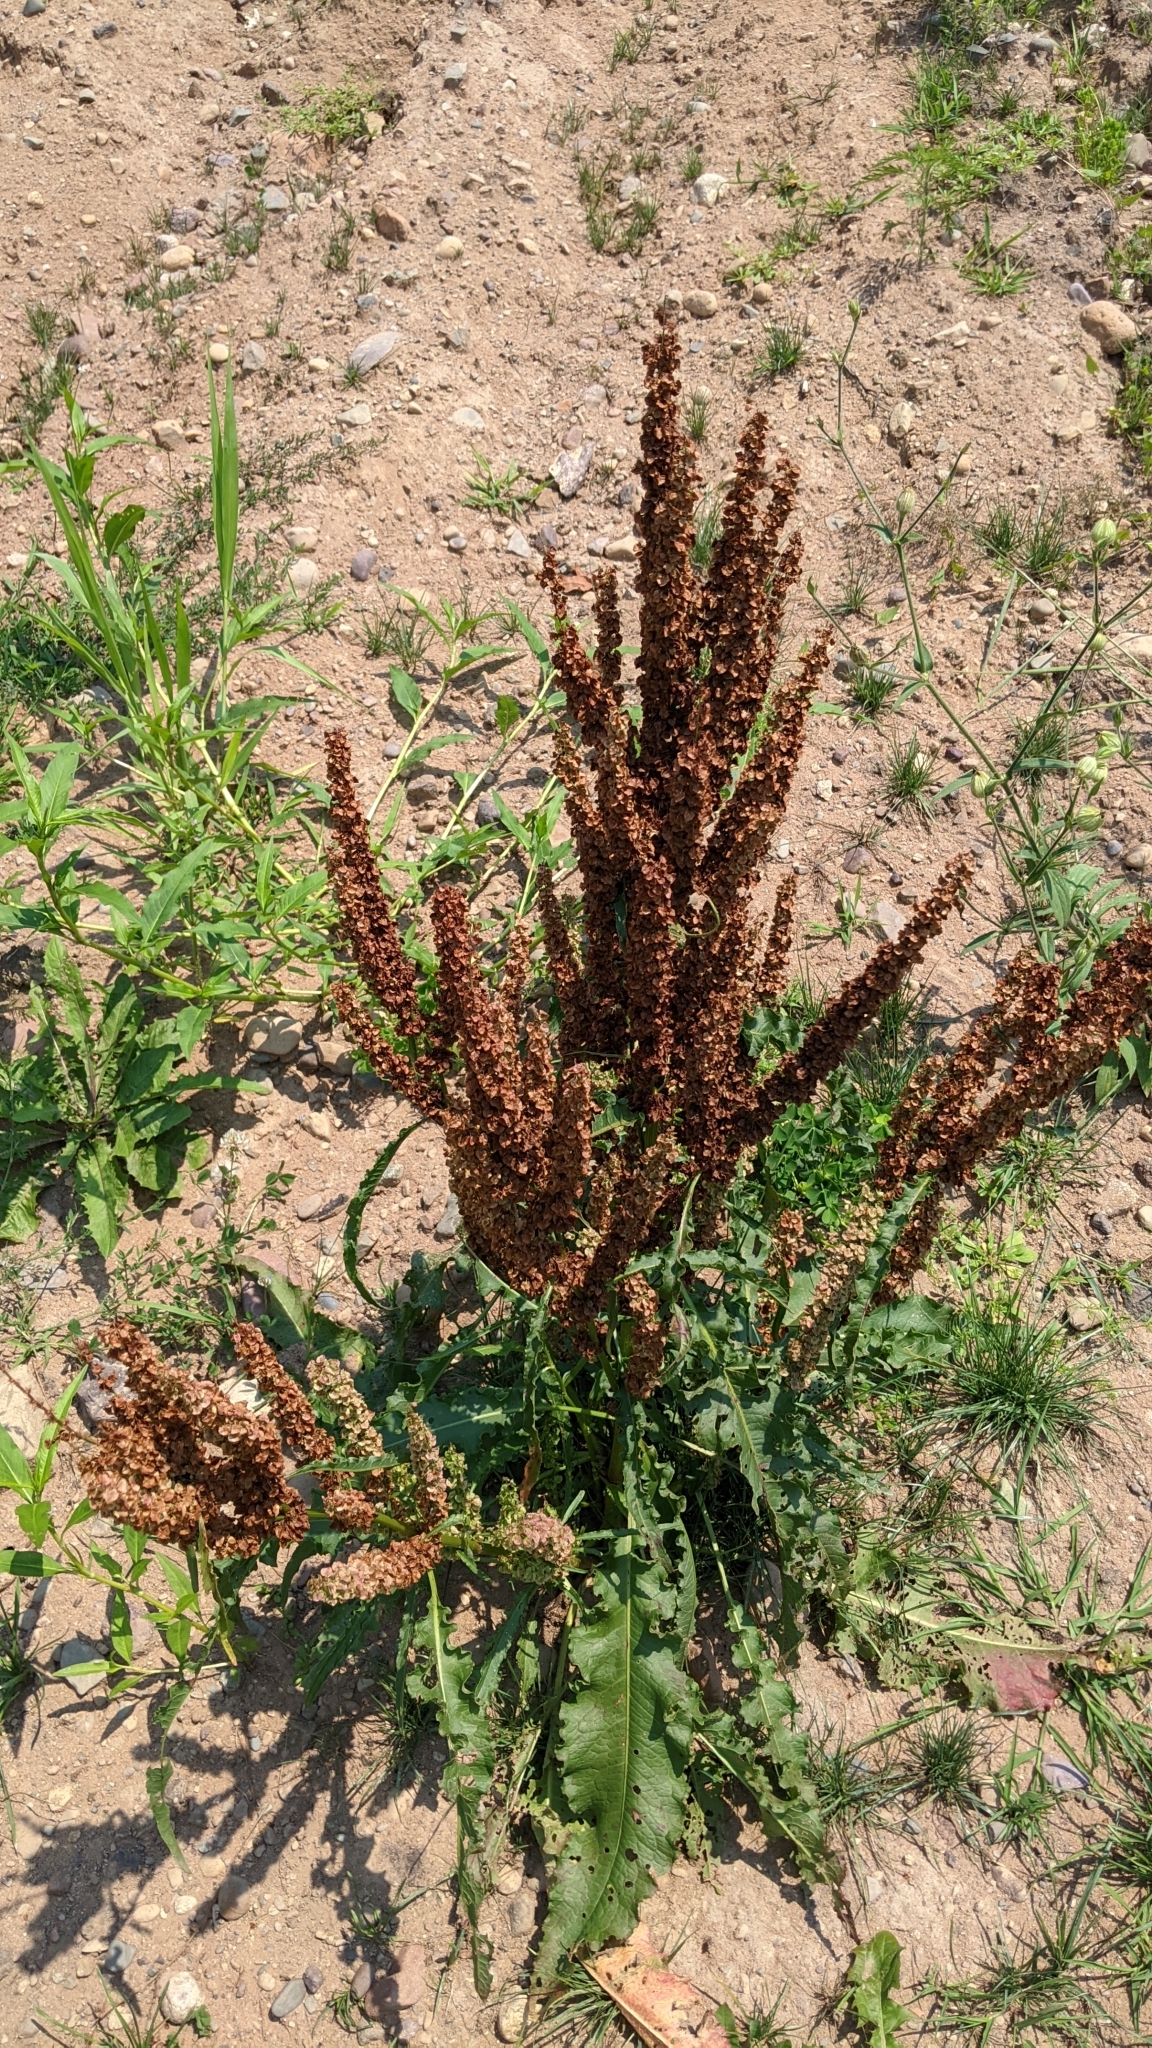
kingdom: Plantae
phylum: Tracheophyta
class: Magnoliopsida
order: Caryophyllales
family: Polygonaceae
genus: Rumex
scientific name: Rumex crispus
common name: Curled dock
